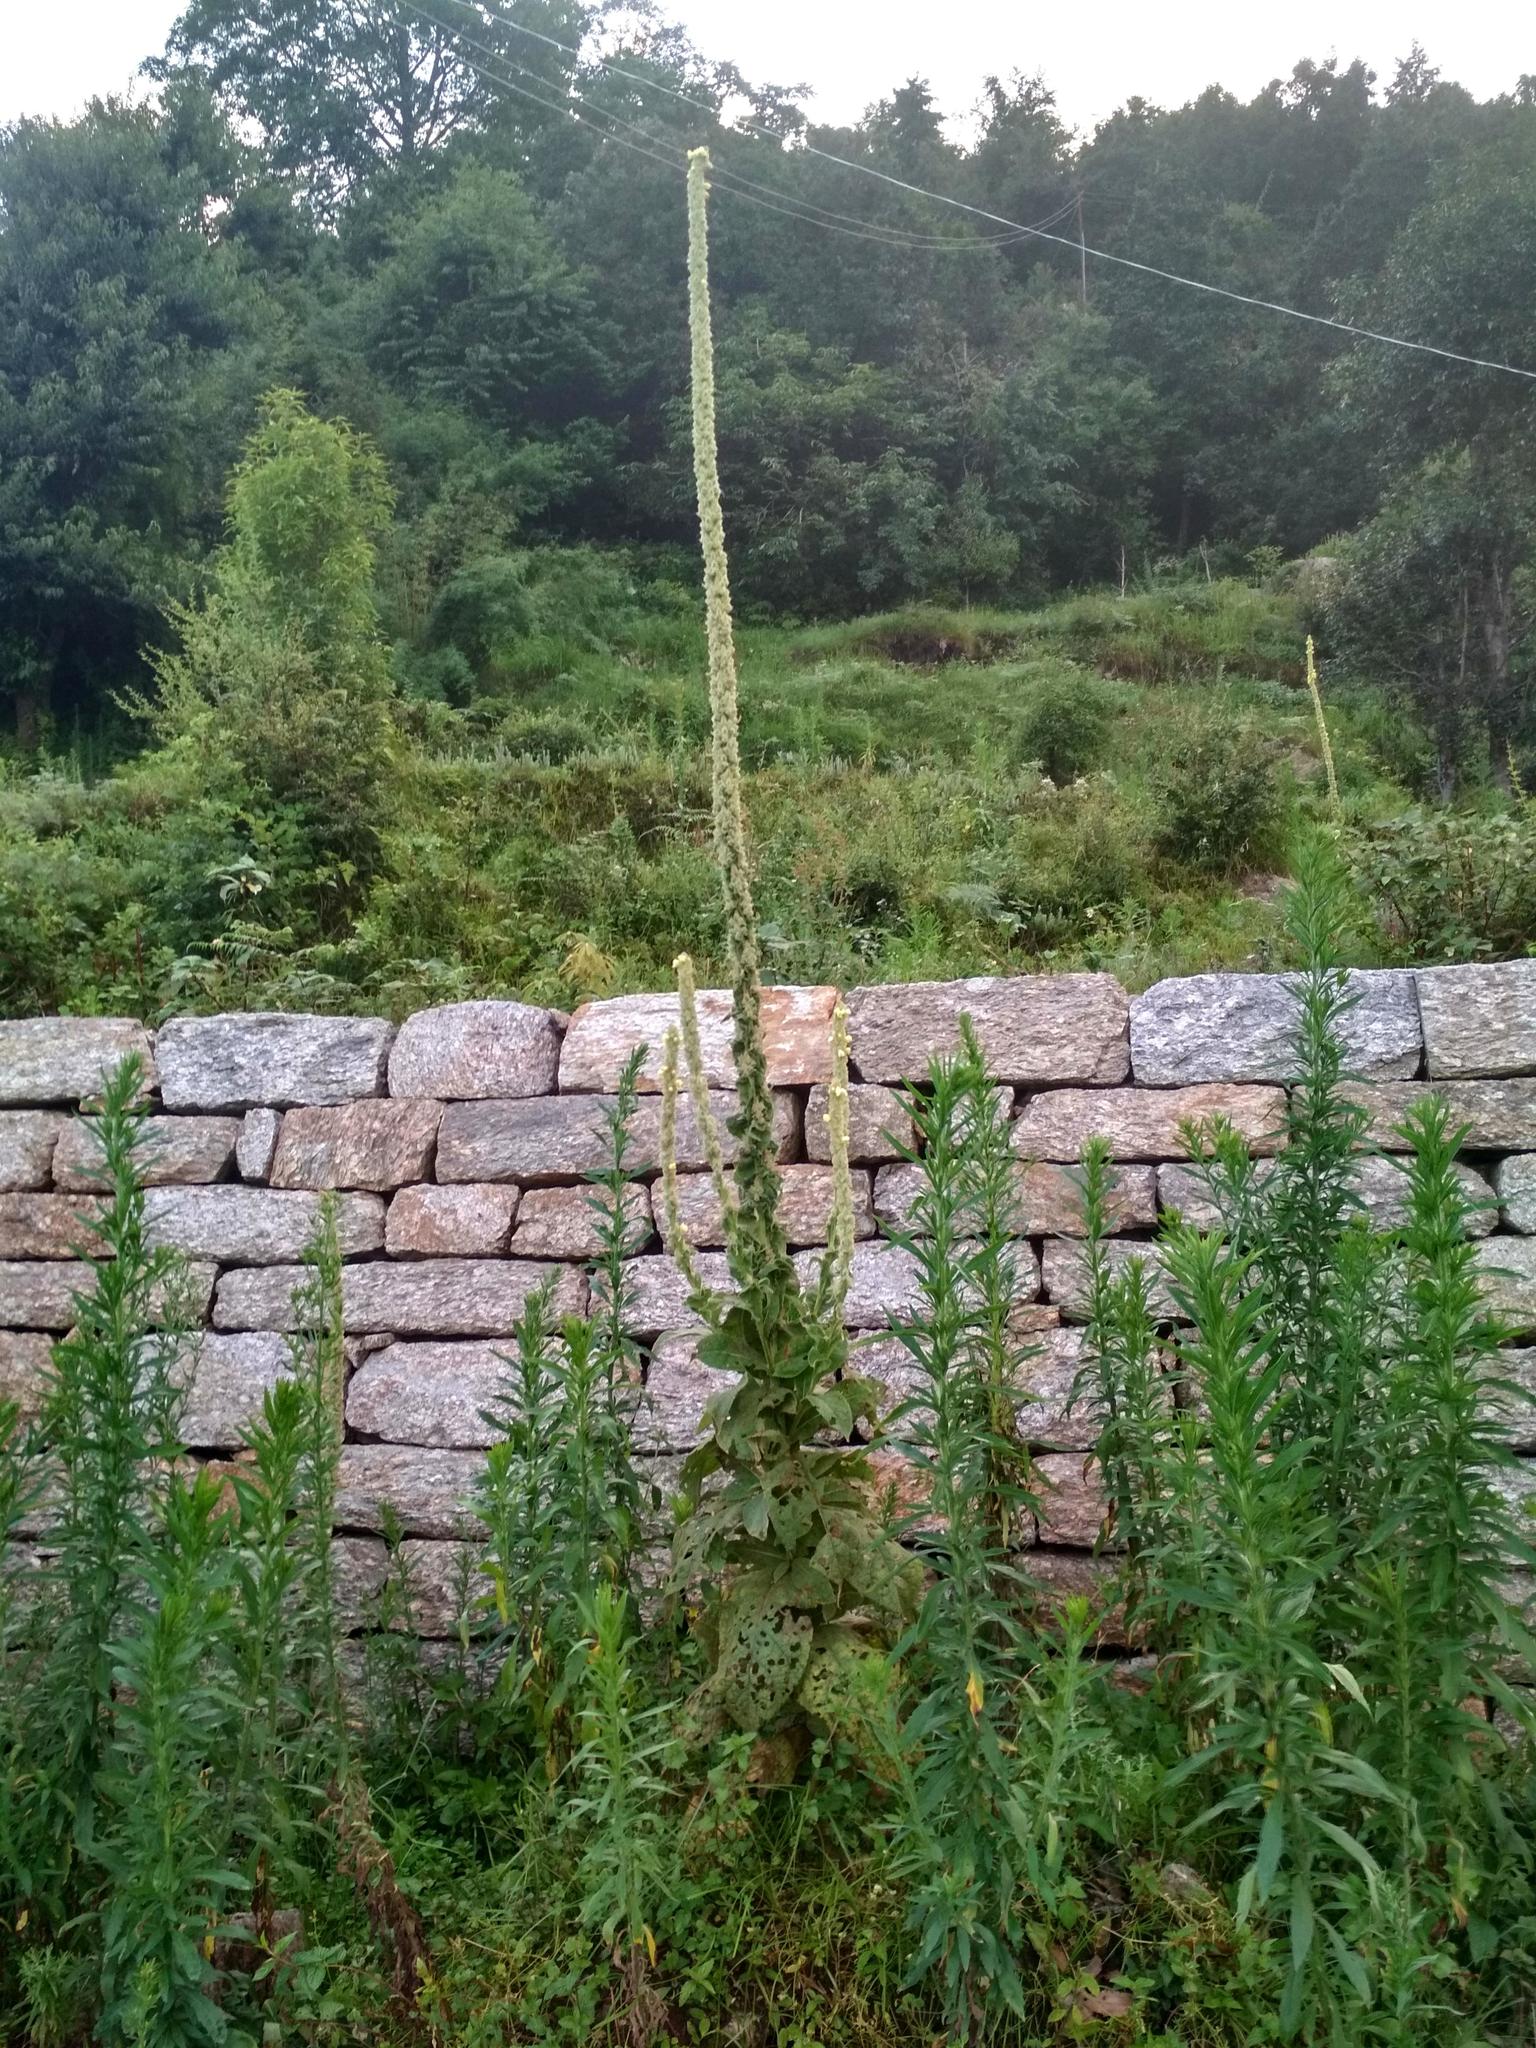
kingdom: Plantae
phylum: Tracheophyta
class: Magnoliopsida
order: Lamiales
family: Scrophulariaceae
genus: Verbascum
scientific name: Verbascum thapsus
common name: Common mullein
